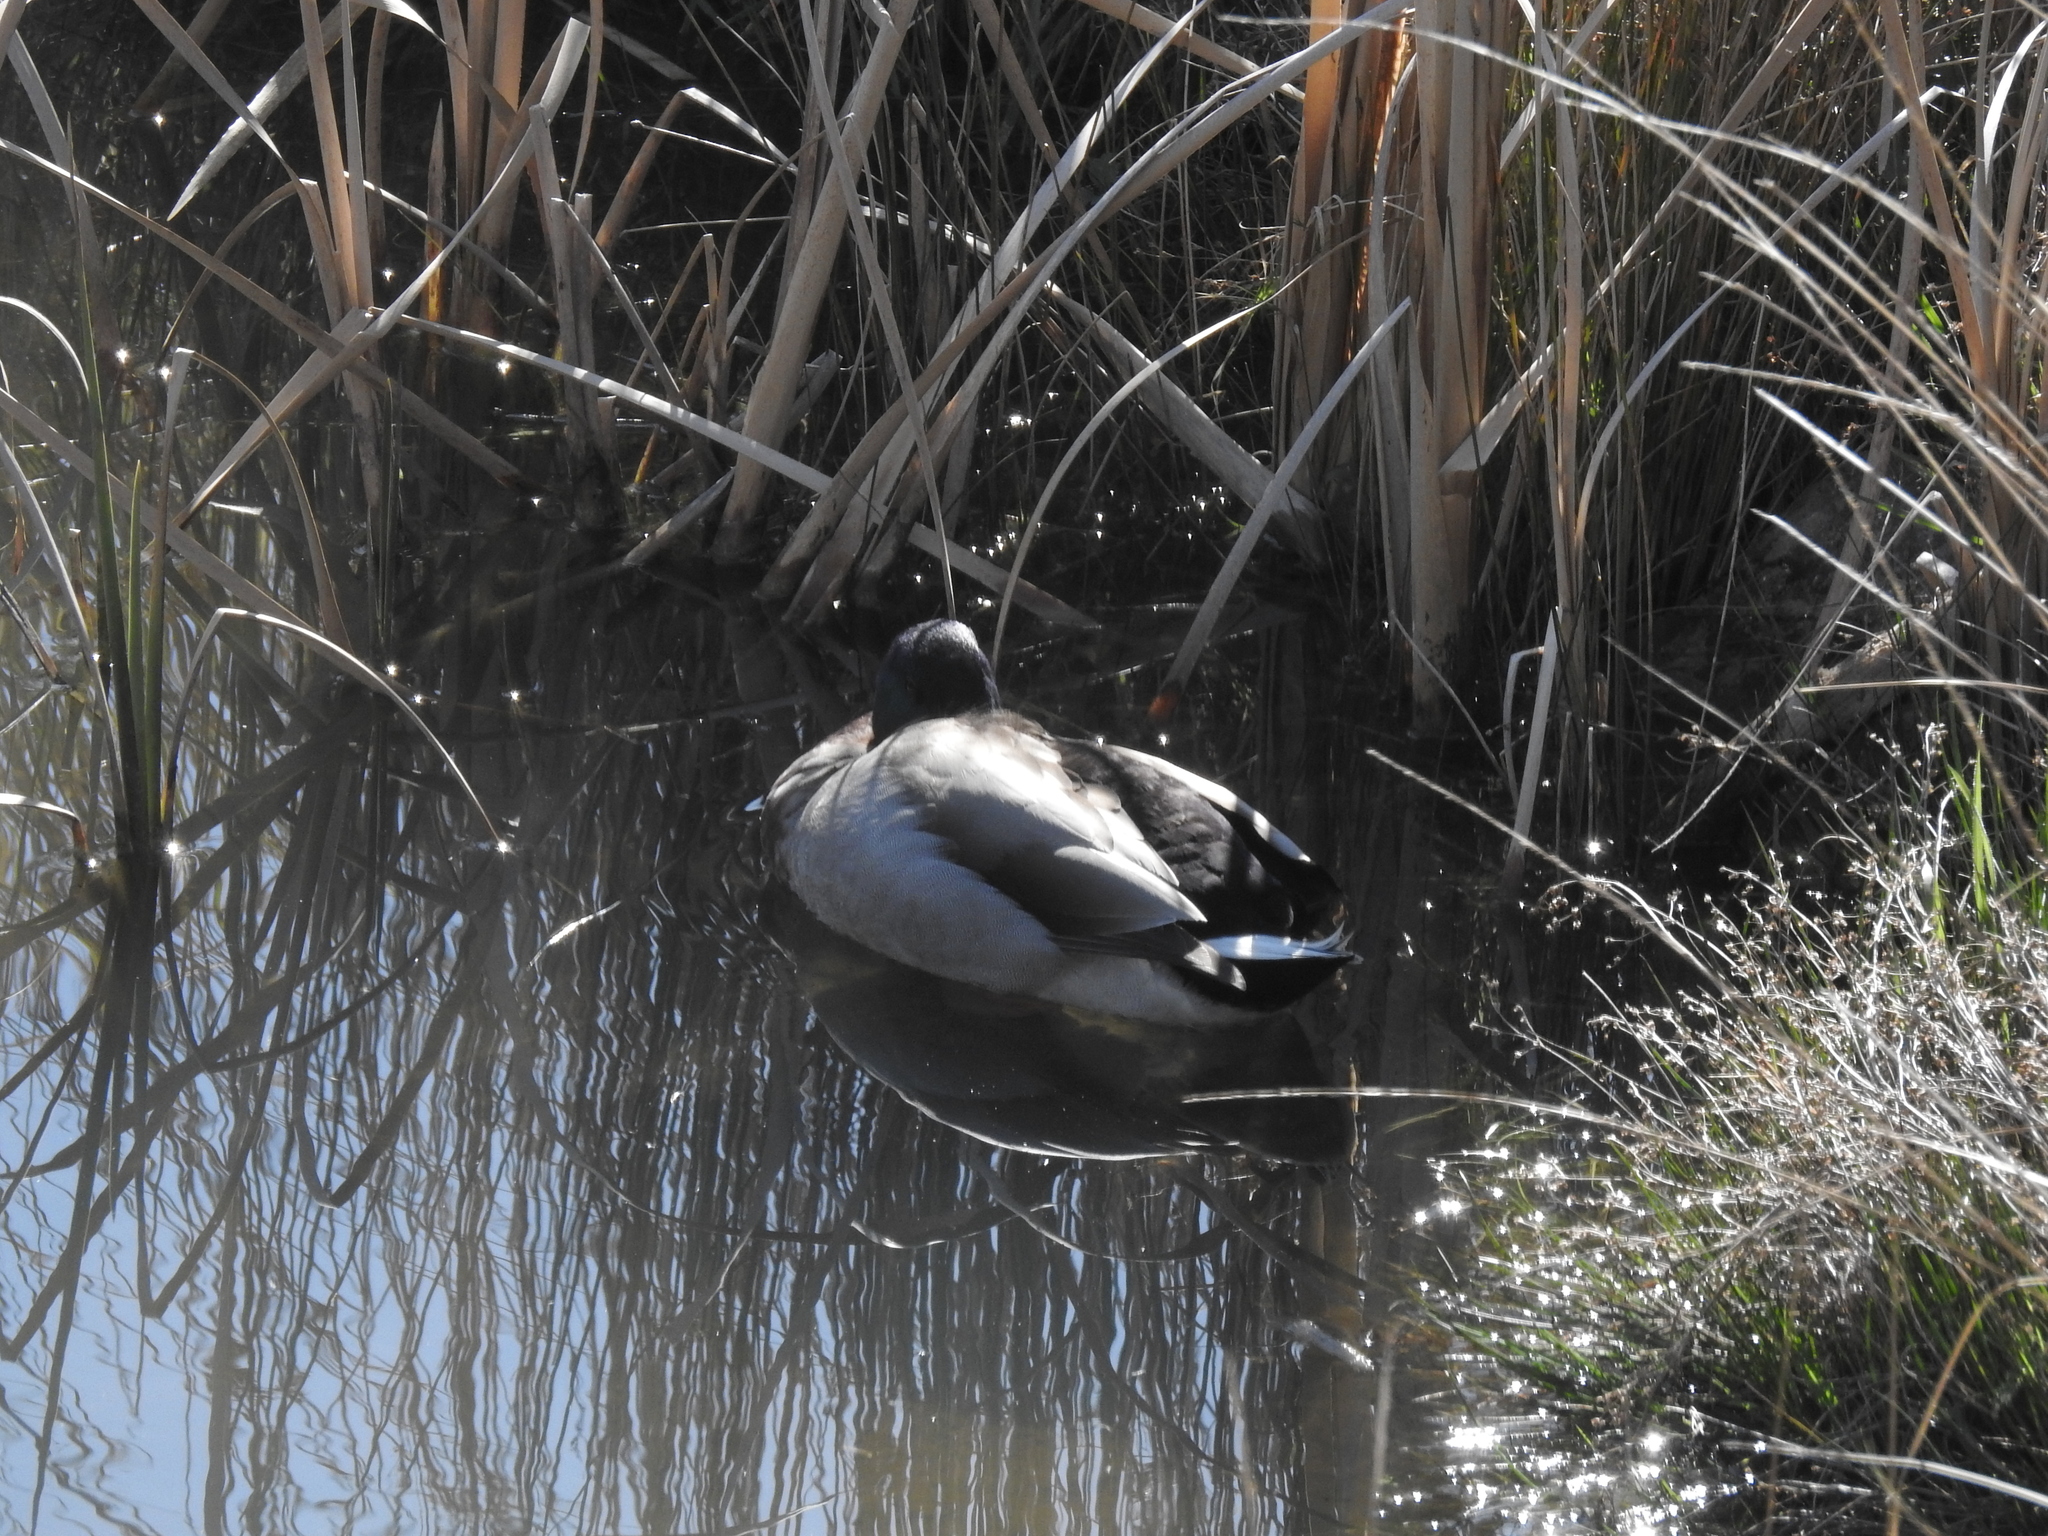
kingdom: Animalia
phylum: Chordata
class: Aves
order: Anseriformes
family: Anatidae
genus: Anas
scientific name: Anas platyrhynchos
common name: Mallard
